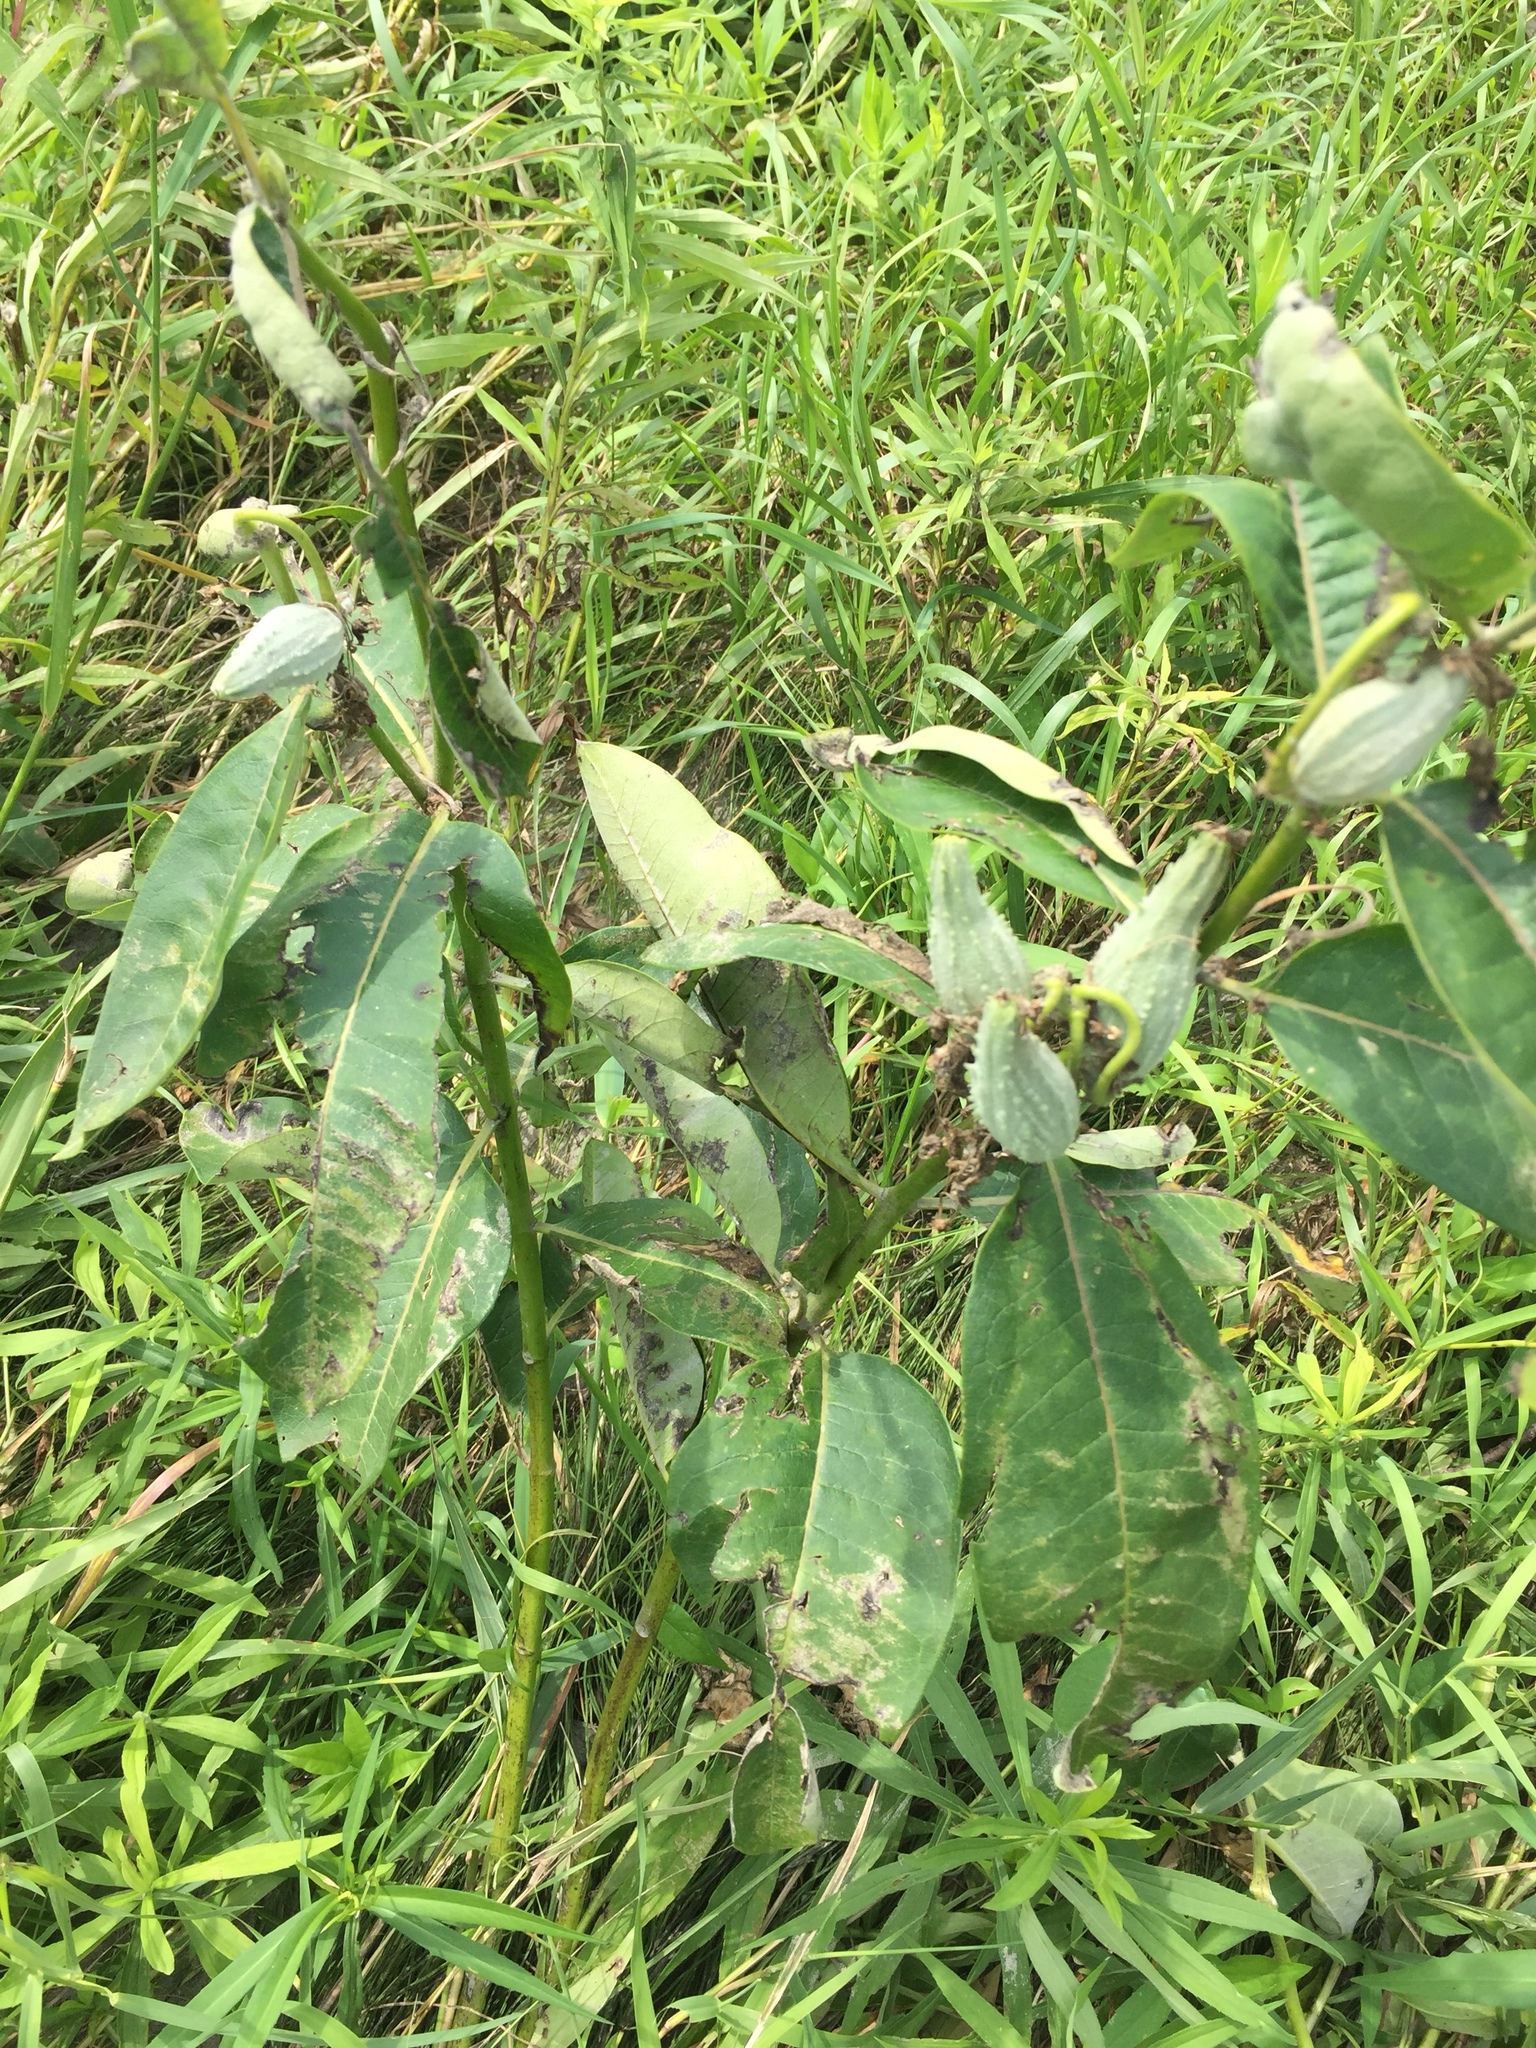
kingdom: Plantae
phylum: Tracheophyta
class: Magnoliopsida
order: Gentianales
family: Apocynaceae
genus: Asclepias
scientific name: Asclepias syriaca
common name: Common milkweed
